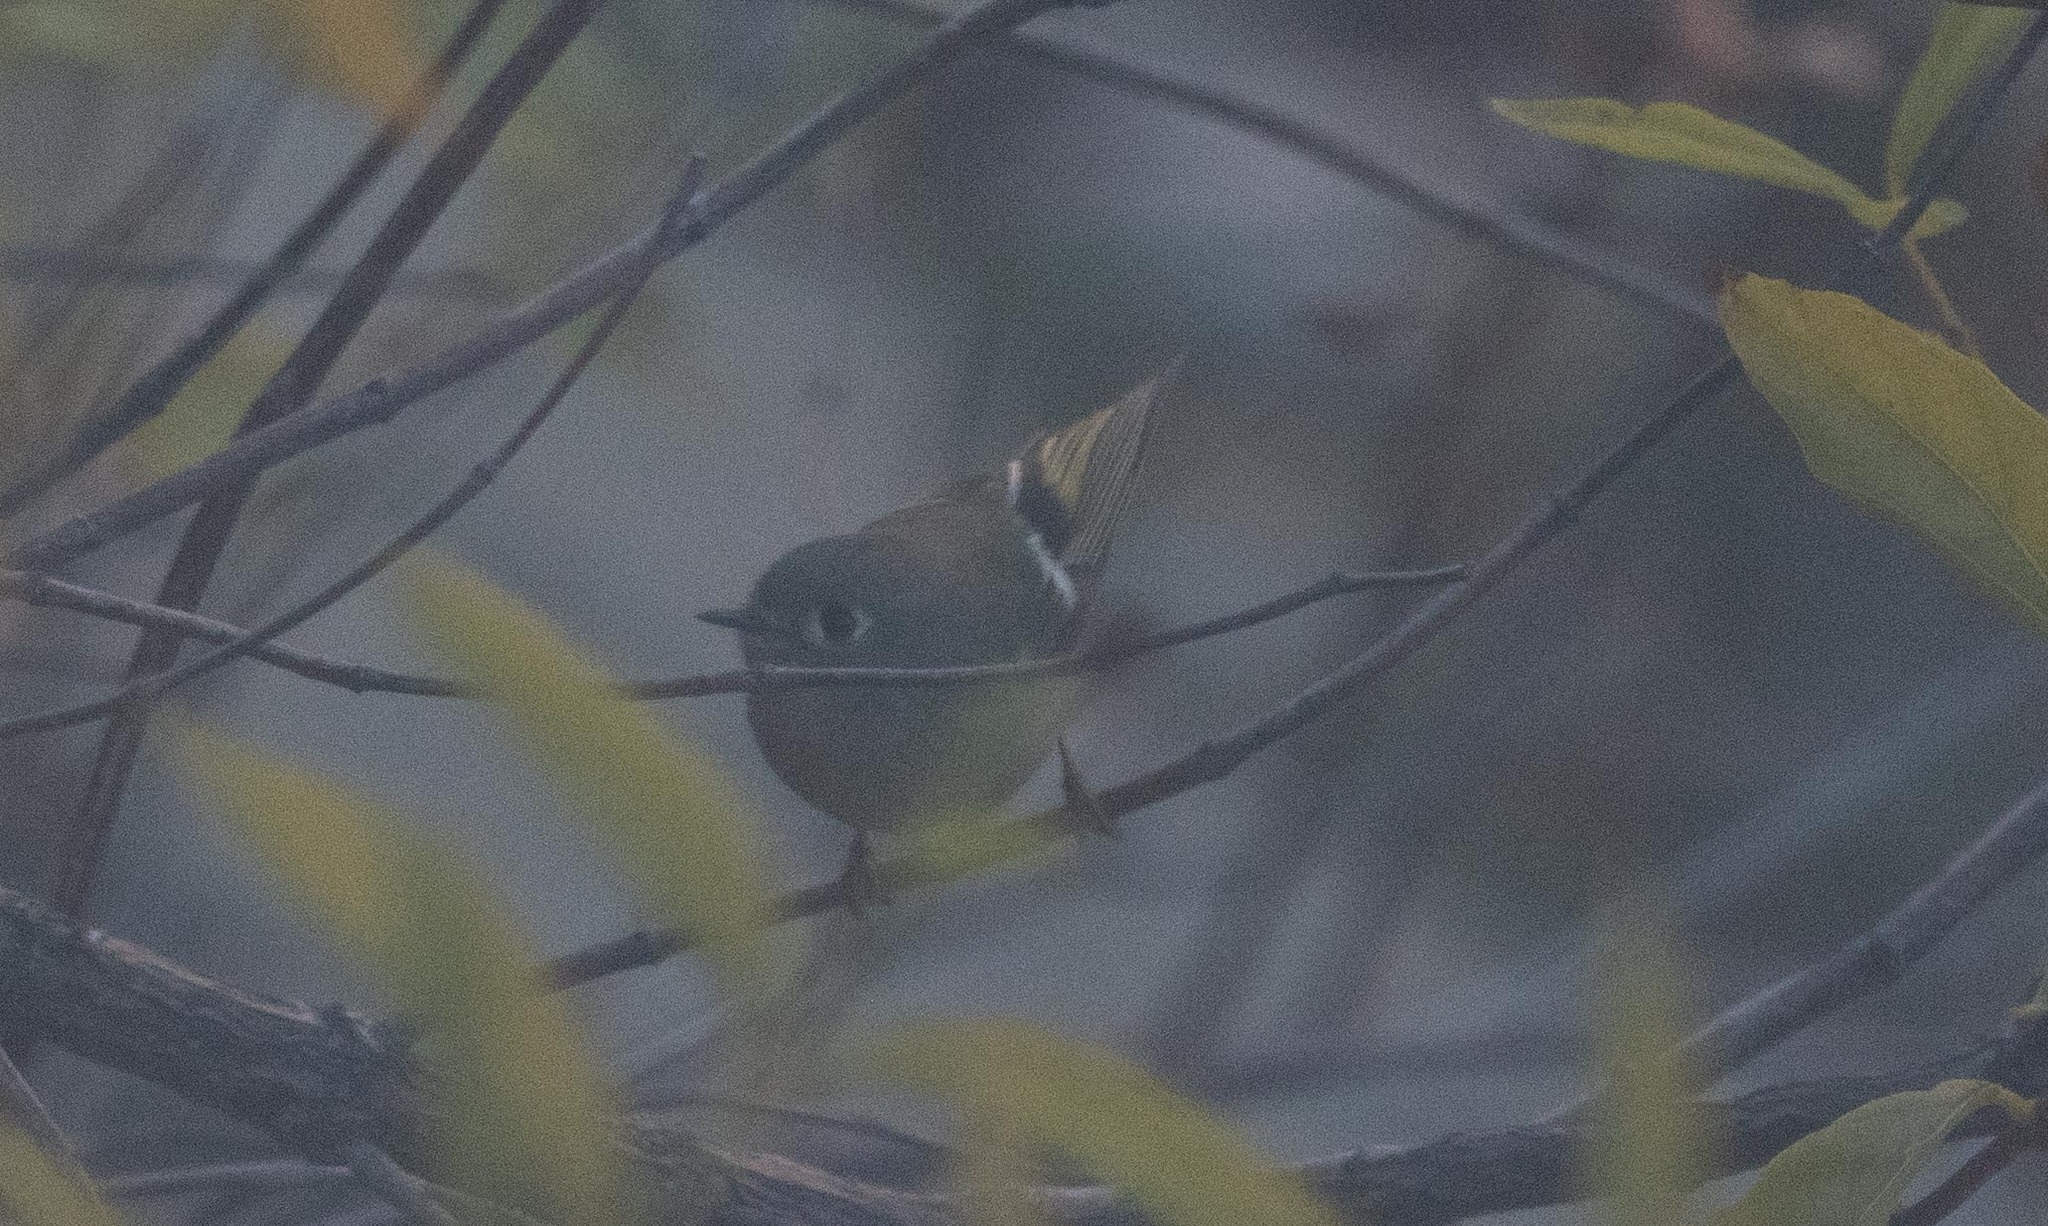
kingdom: Animalia
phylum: Chordata
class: Aves
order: Passeriformes
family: Regulidae
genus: Regulus
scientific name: Regulus calendula
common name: Ruby-crowned kinglet
